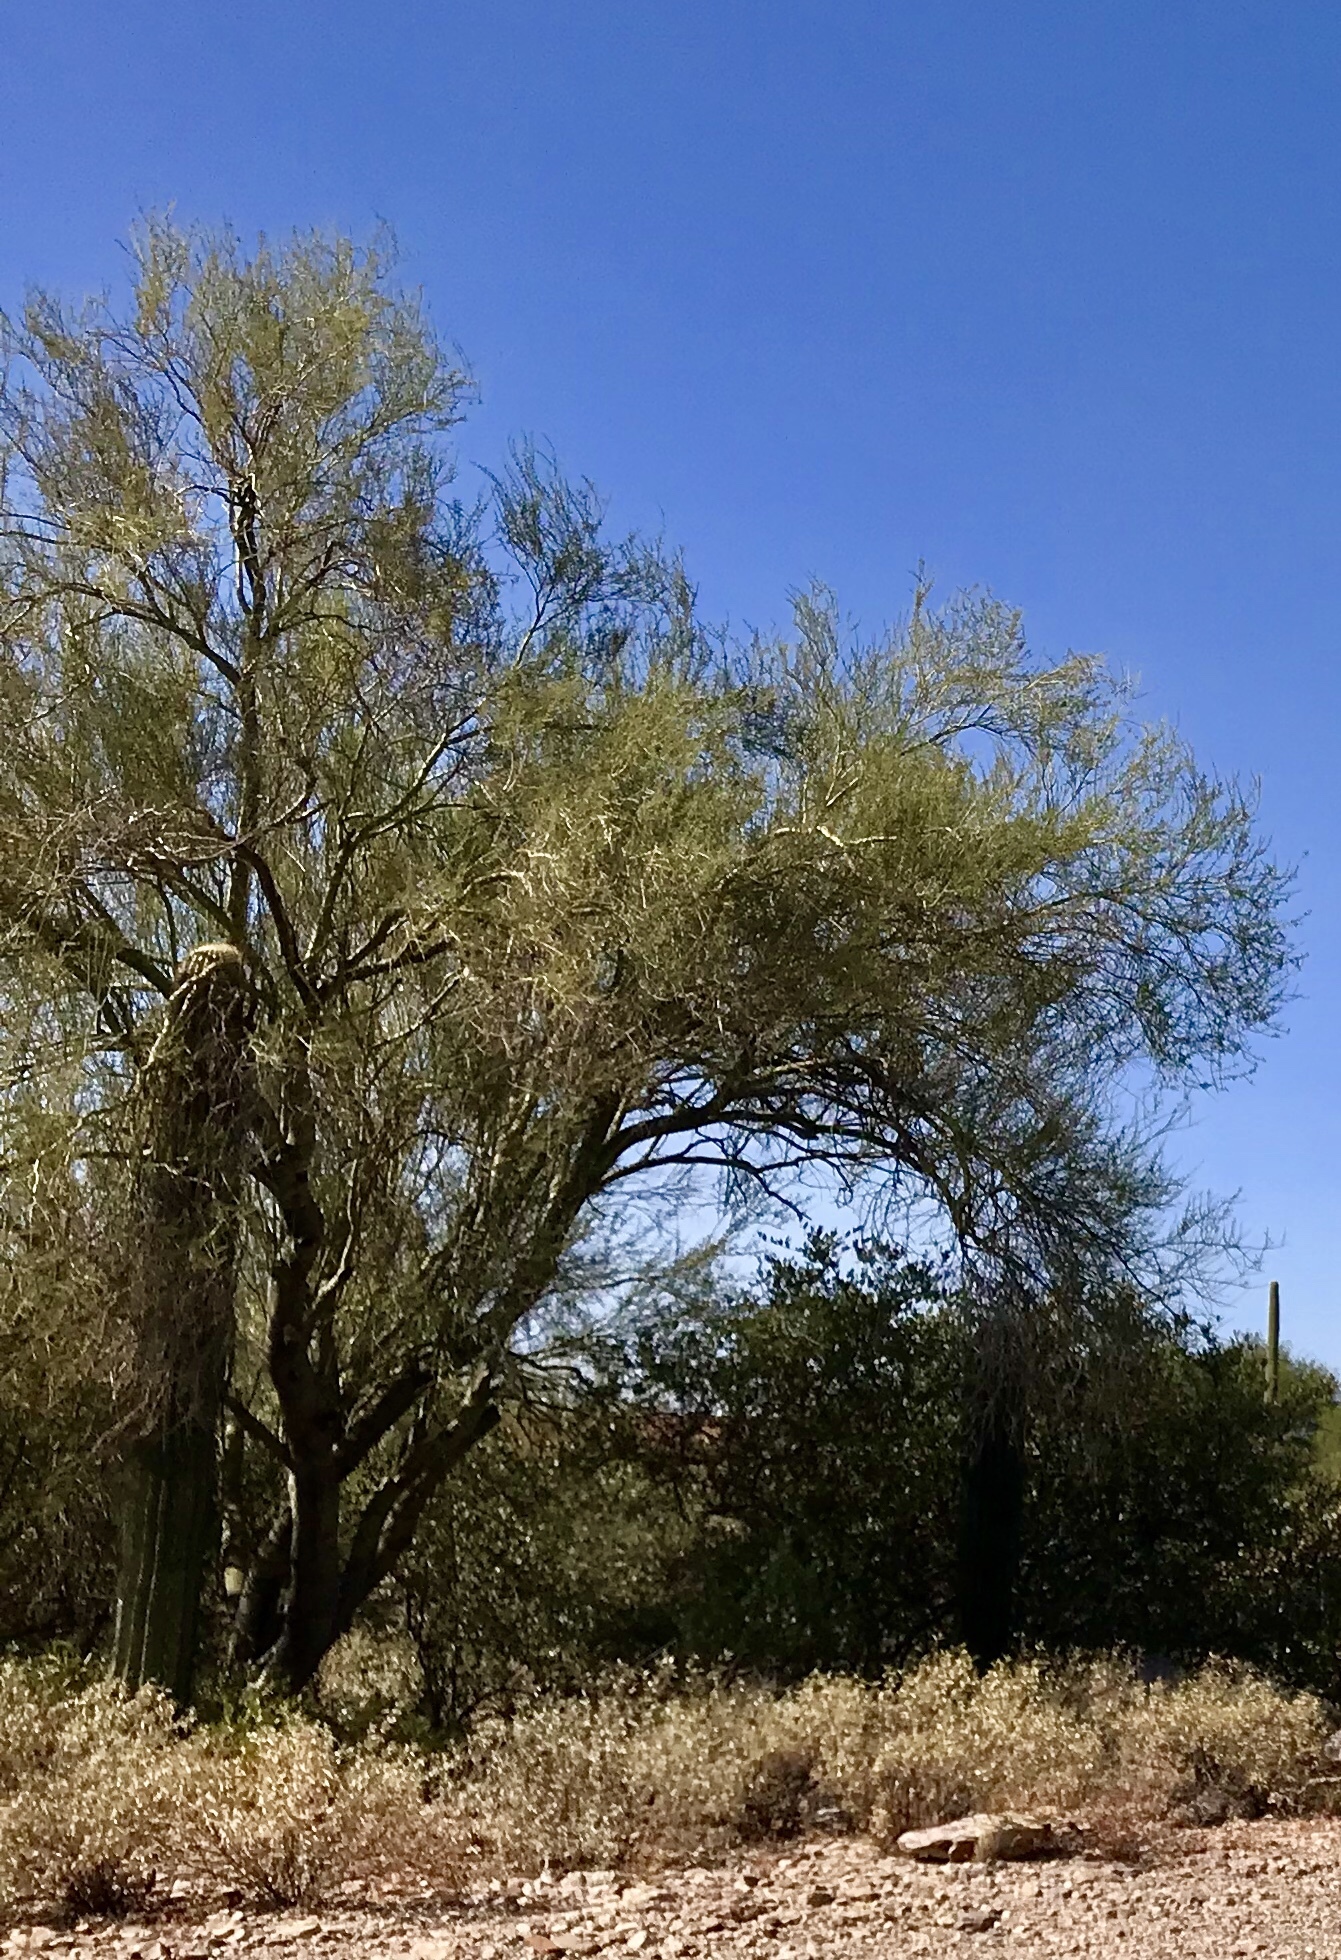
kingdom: Plantae
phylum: Tracheophyta
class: Magnoliopsida
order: Fabales
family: Fabaceae
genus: Parkinsonia
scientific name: Parkinsonia florida
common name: Blue paloverde
